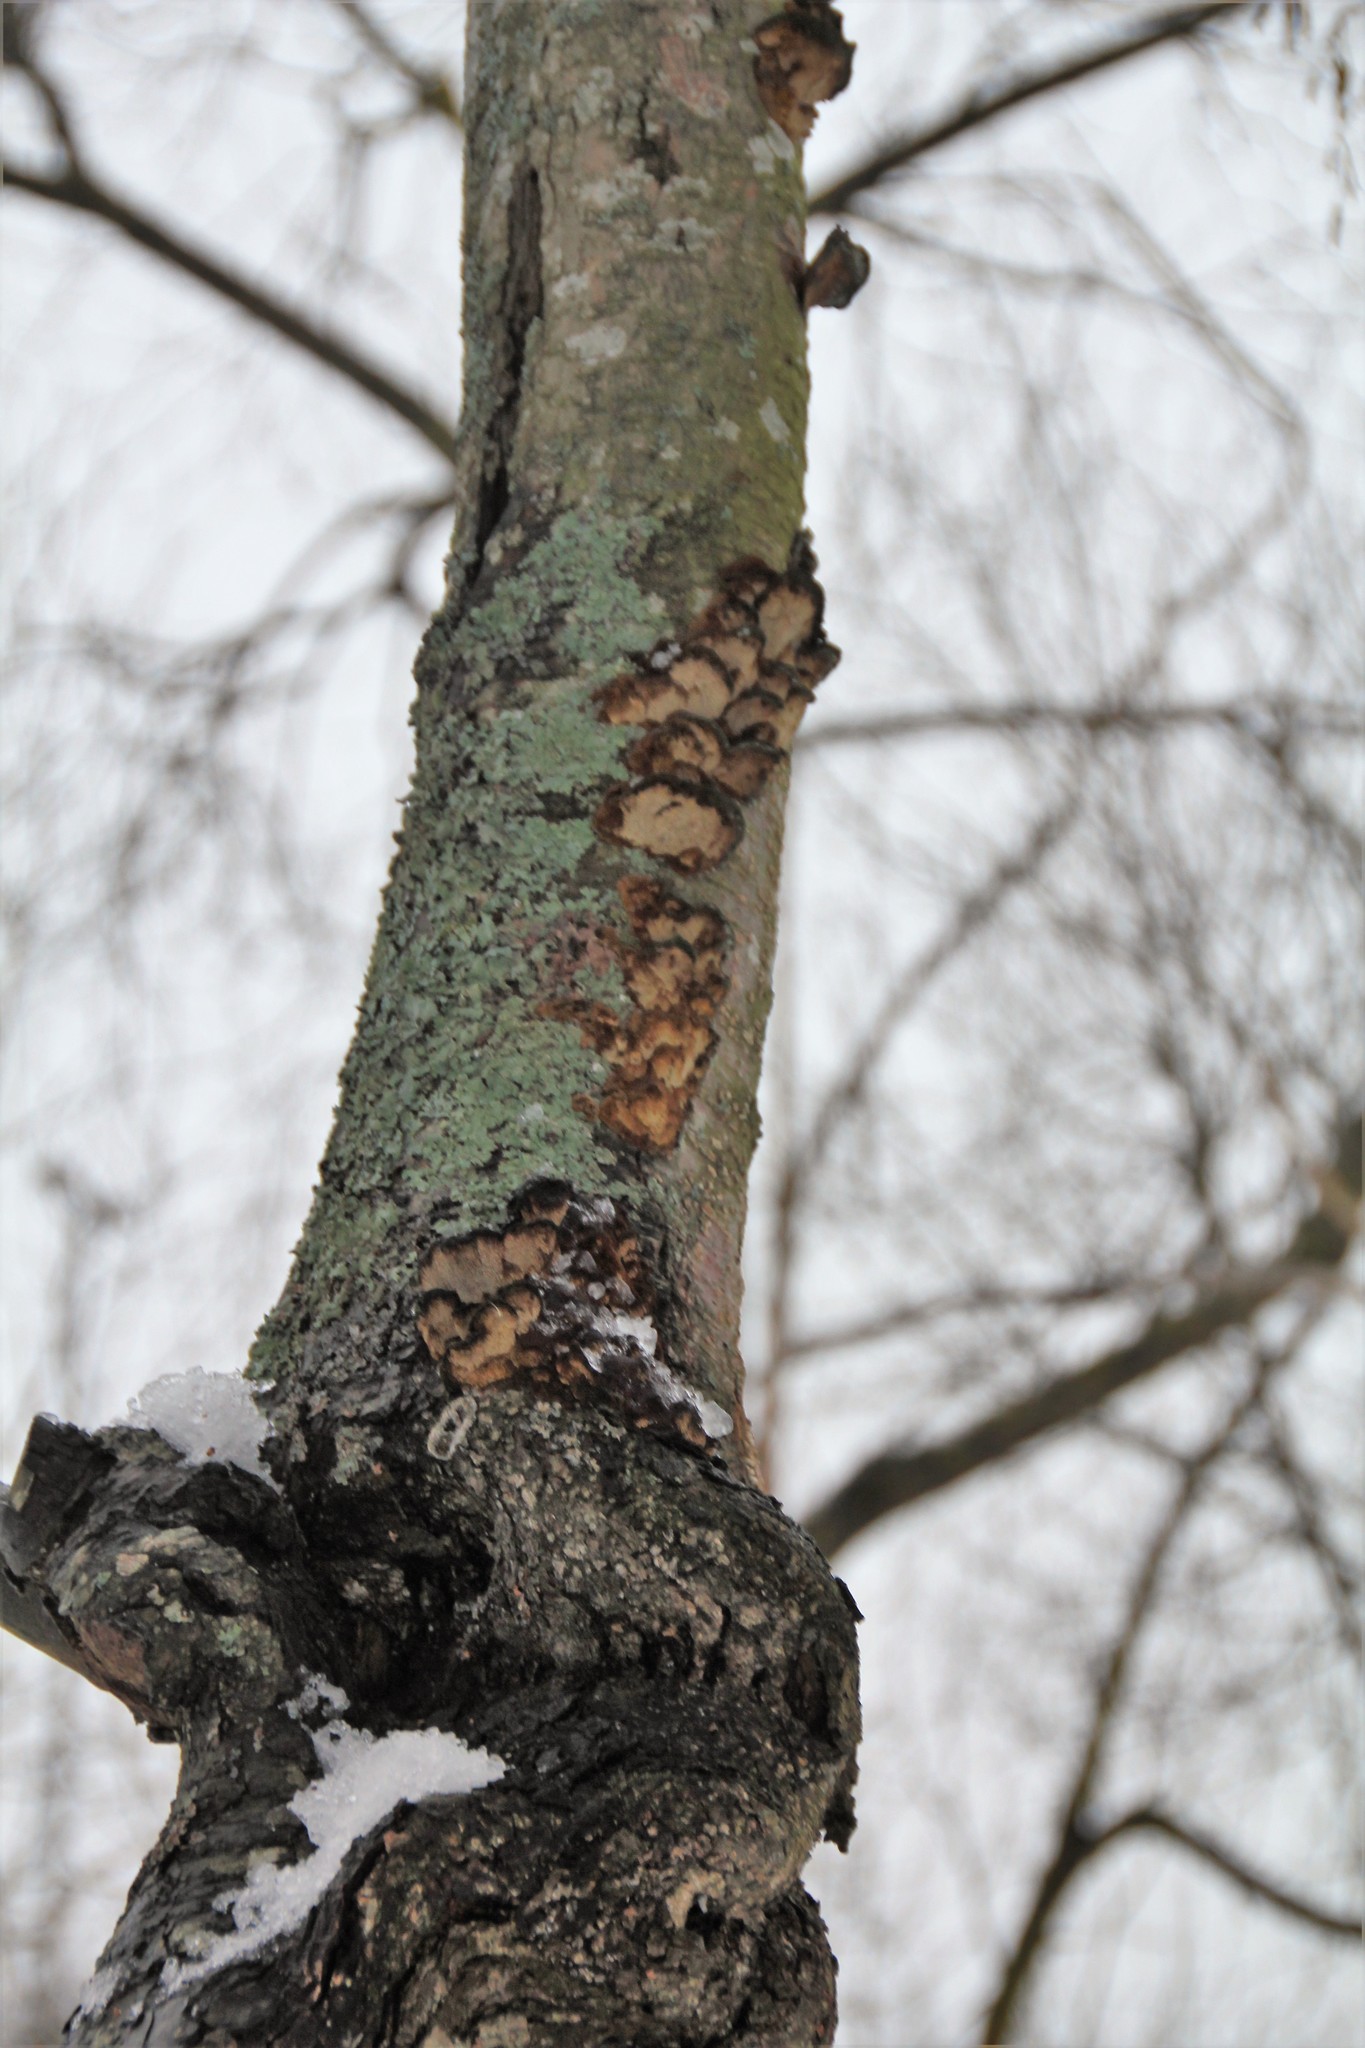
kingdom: Fungi
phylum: Basidiomycota
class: Agaricomycetes
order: Hymenochaetales
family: Hymenochaetaceae
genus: Xanthoporia
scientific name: Xanthoporia radiata
